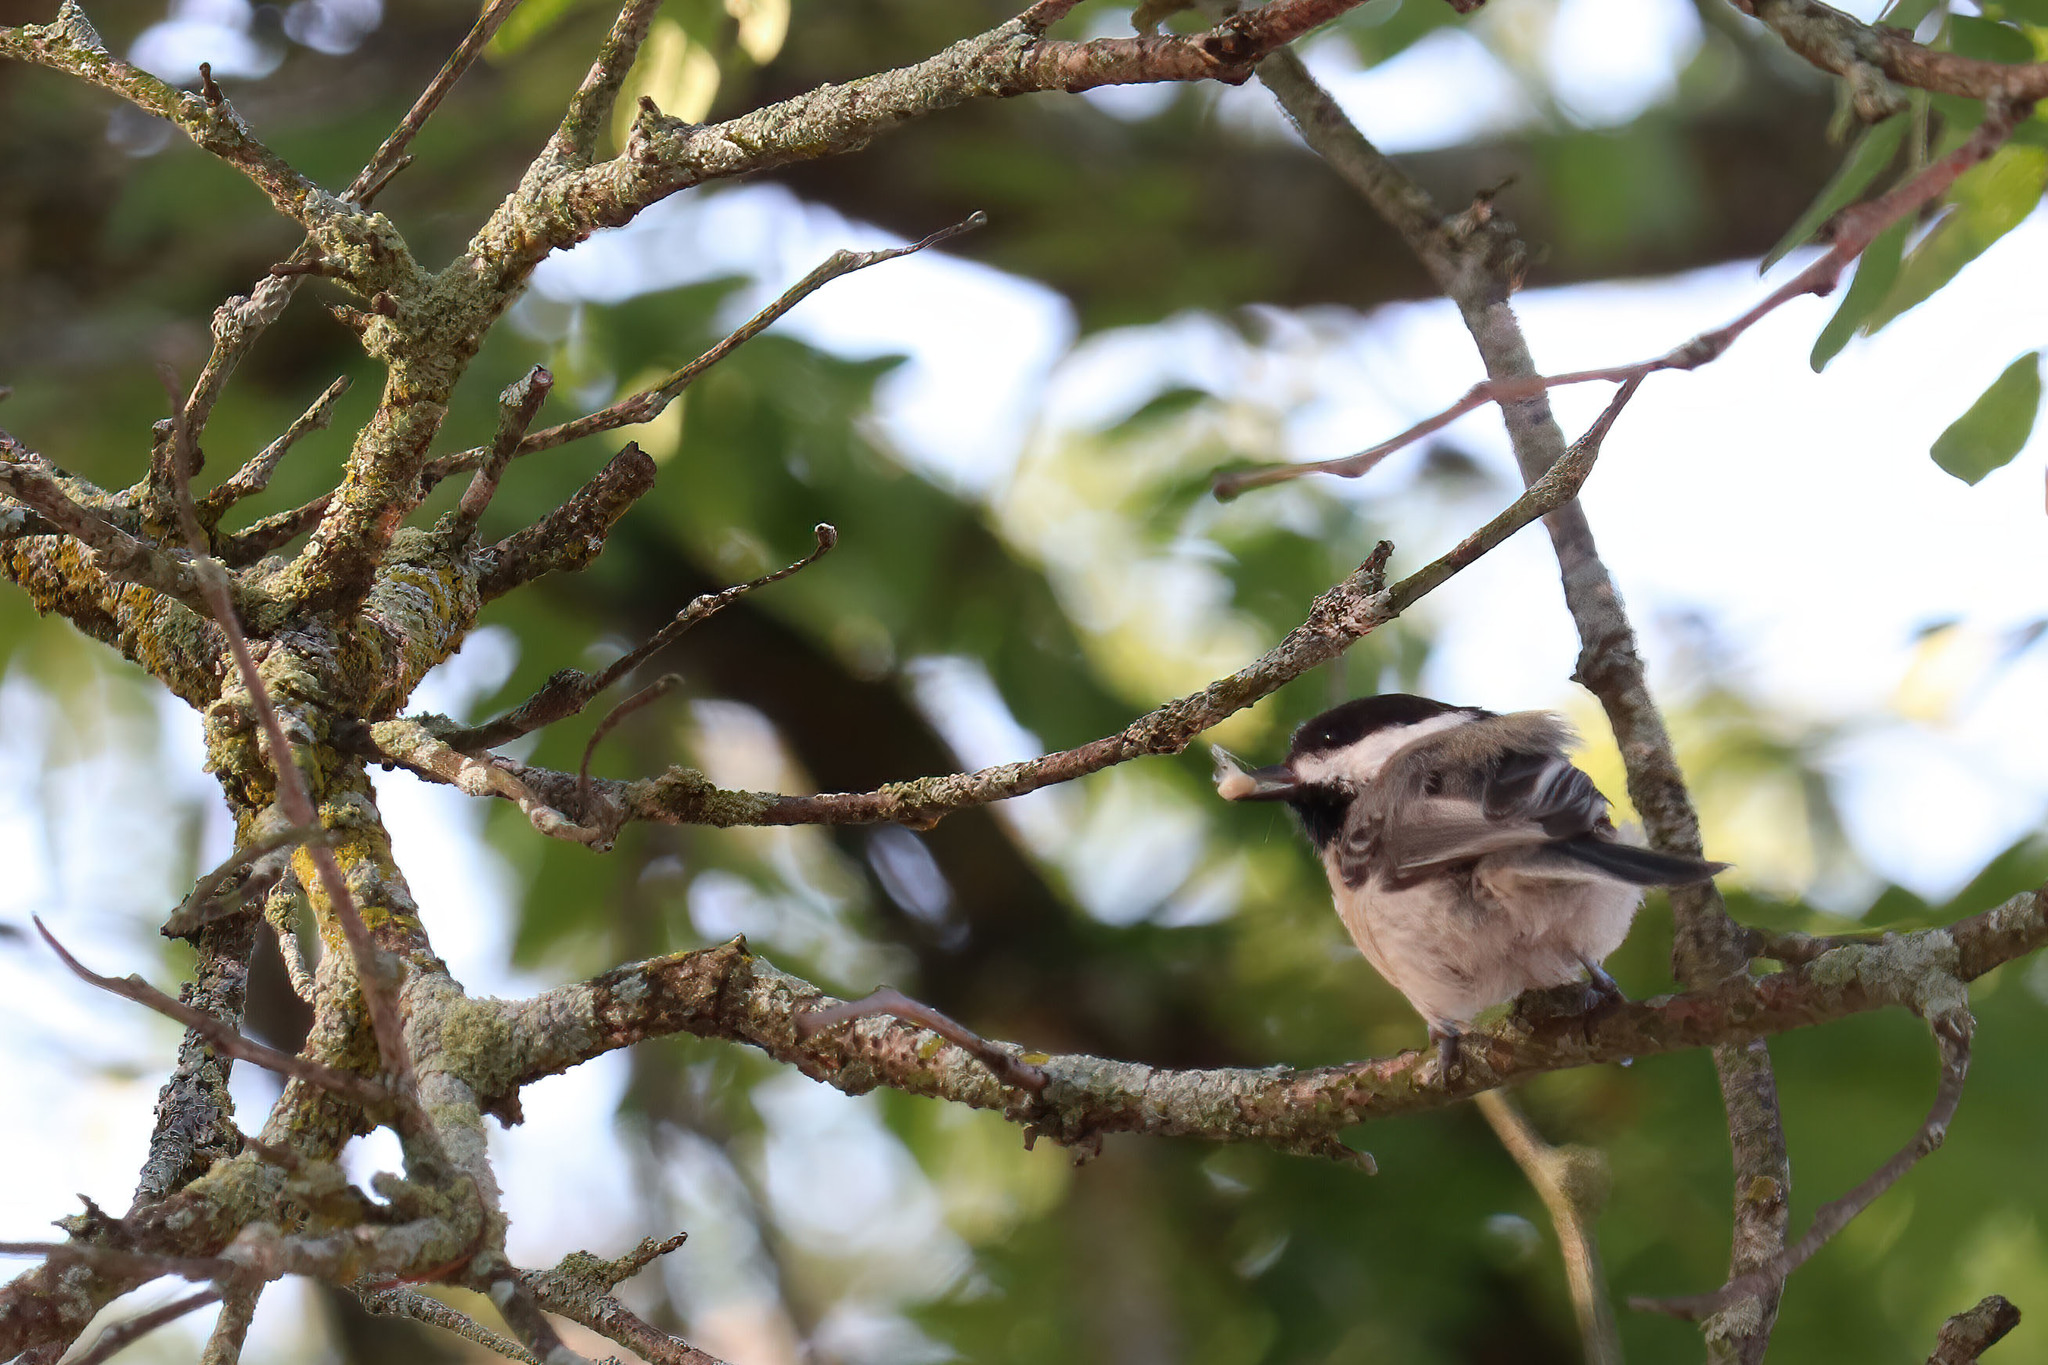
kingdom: Animalia
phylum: Chordata
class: Aves
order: Passeriformes
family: Paridae
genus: Poecile
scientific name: Poecile atricapillus
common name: Black-capped chickadee
